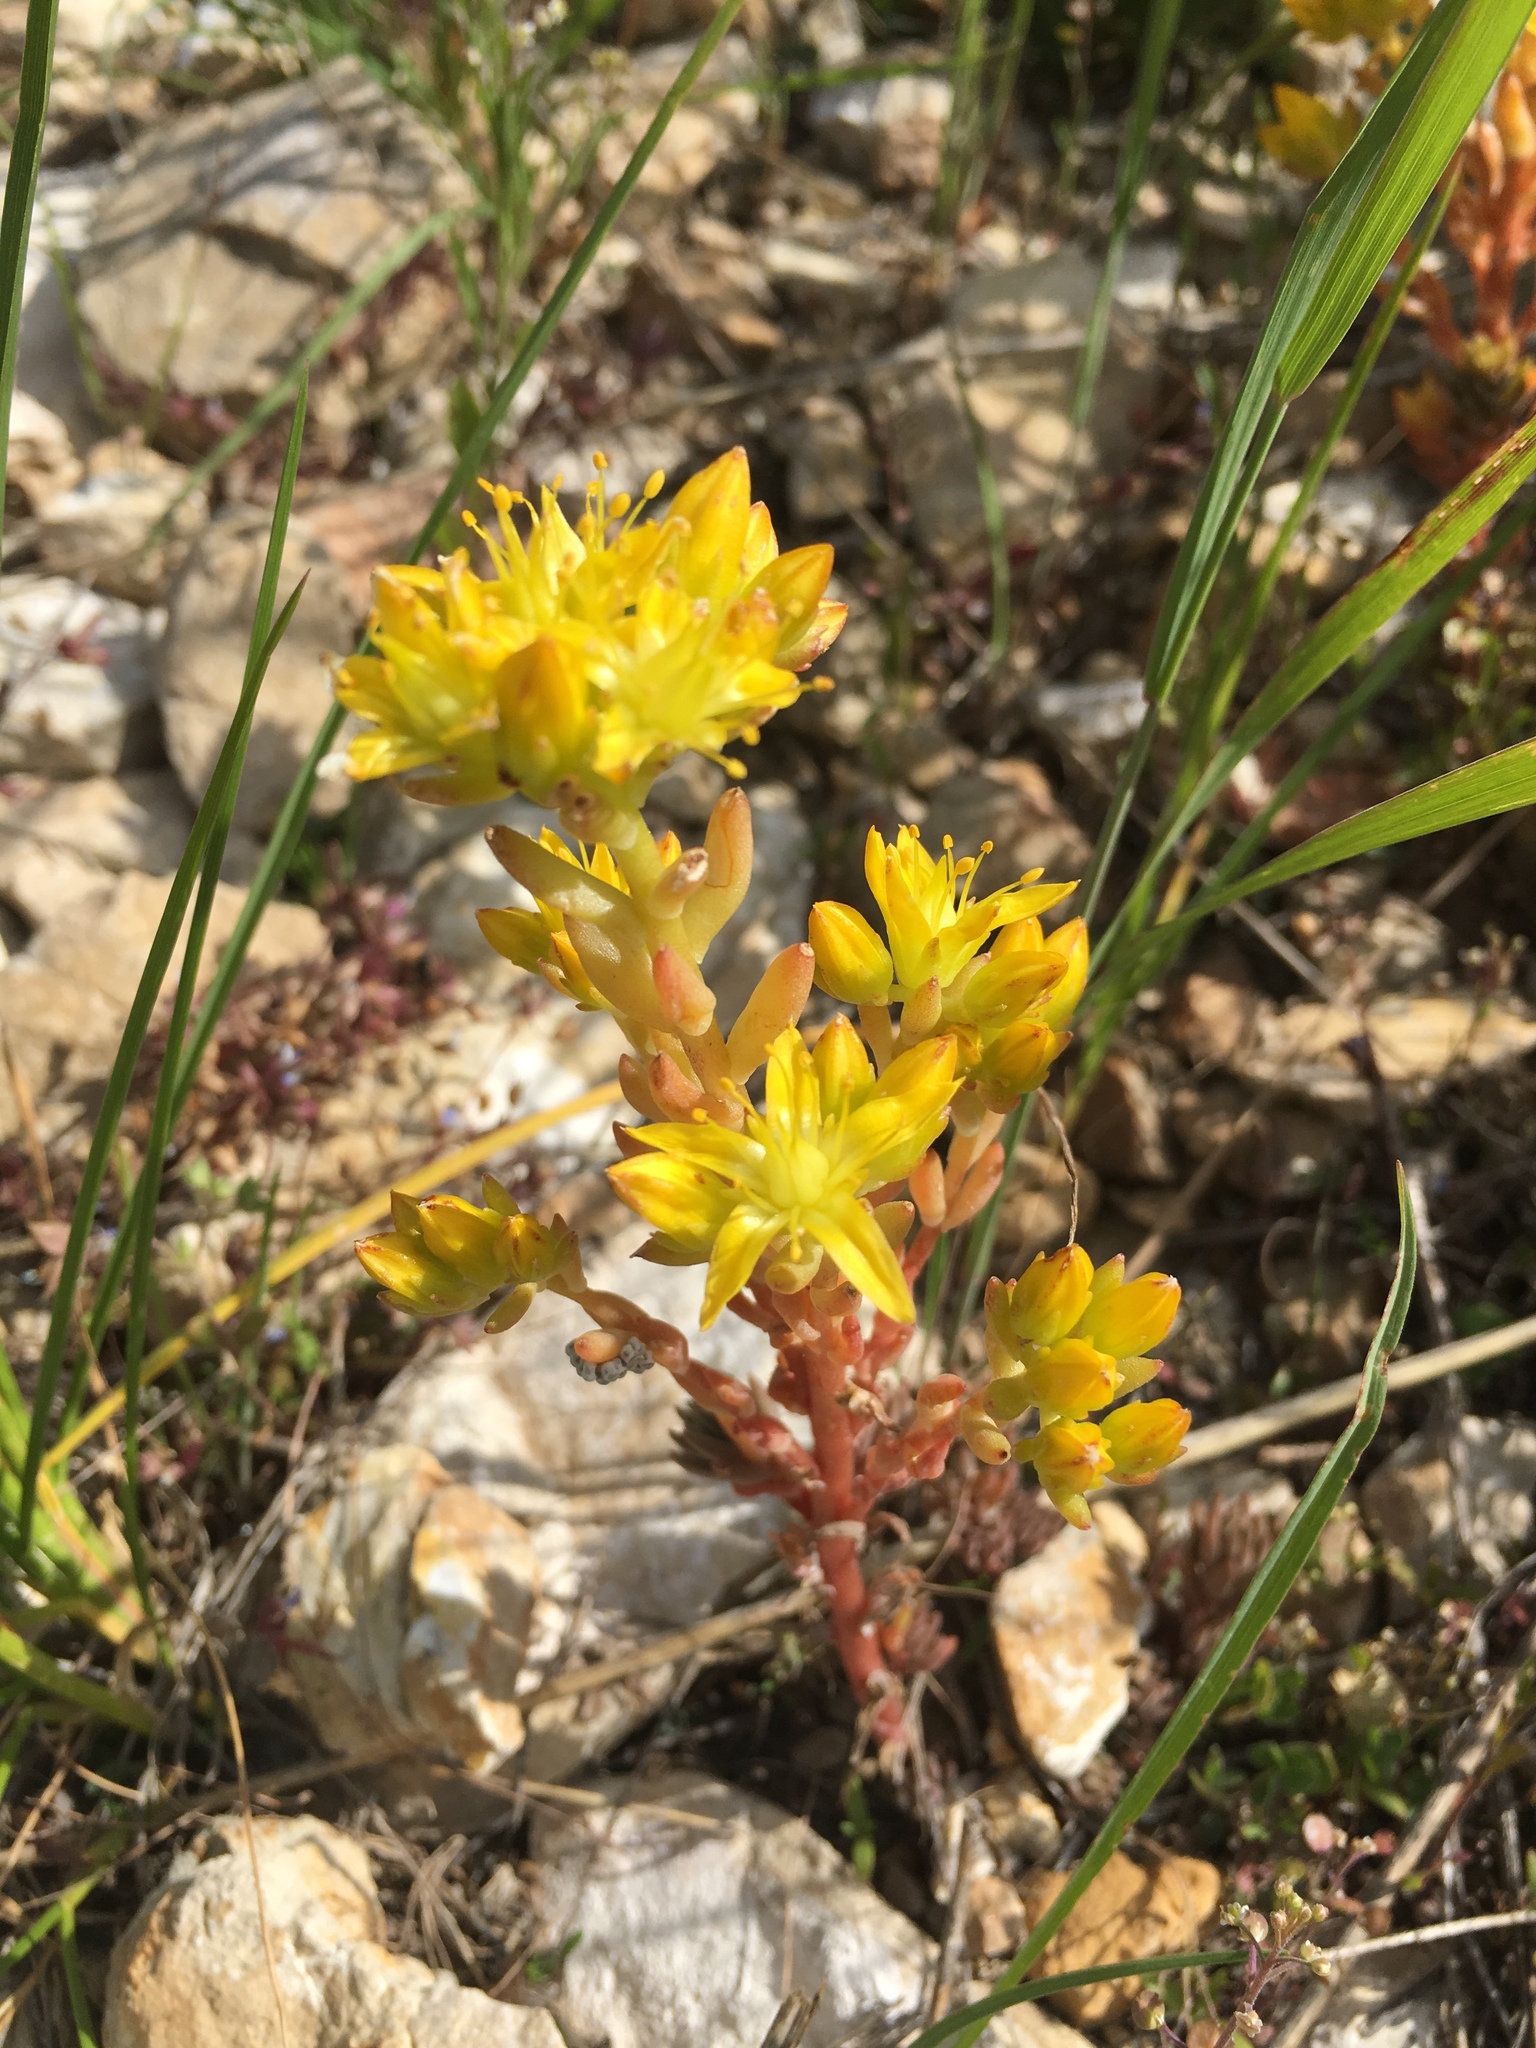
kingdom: Plantae
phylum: Tracheophyta
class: Magnoliopsida
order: Saxifragales
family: Crassulaceae
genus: Sedum
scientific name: Sedum lanceolatum
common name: Common stonecrop
